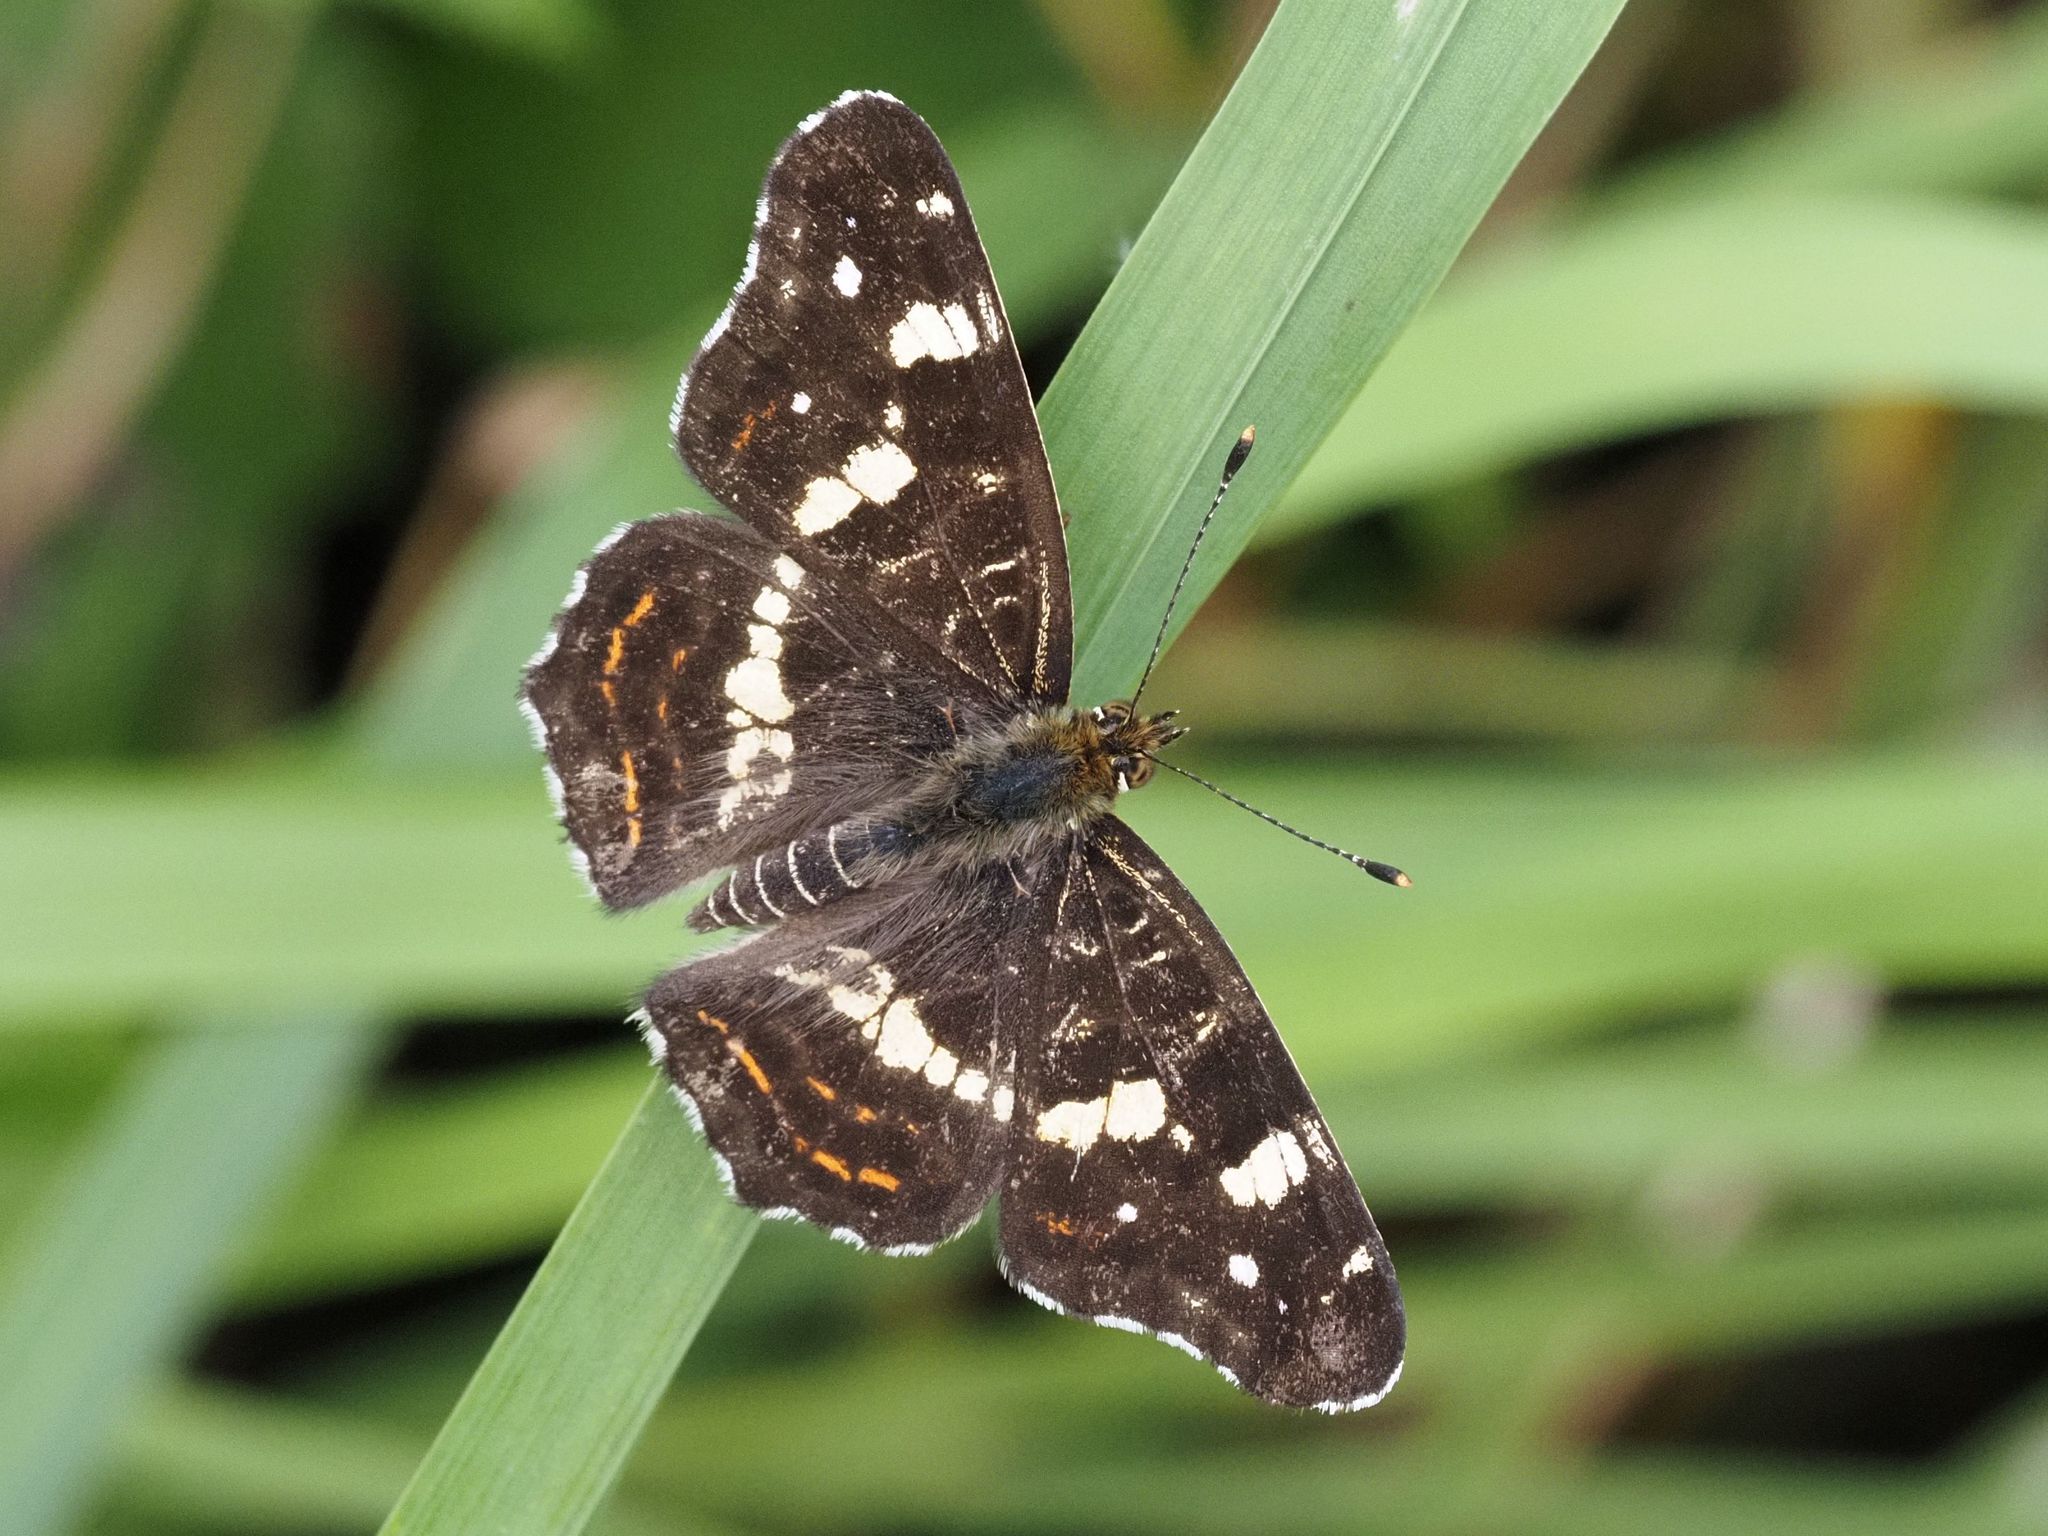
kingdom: Animalia
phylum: Arthropoda
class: Insecta
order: Lepidoptera
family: Nymphalidae
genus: Araschnia
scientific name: Araschnia levana
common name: Map butterfly
